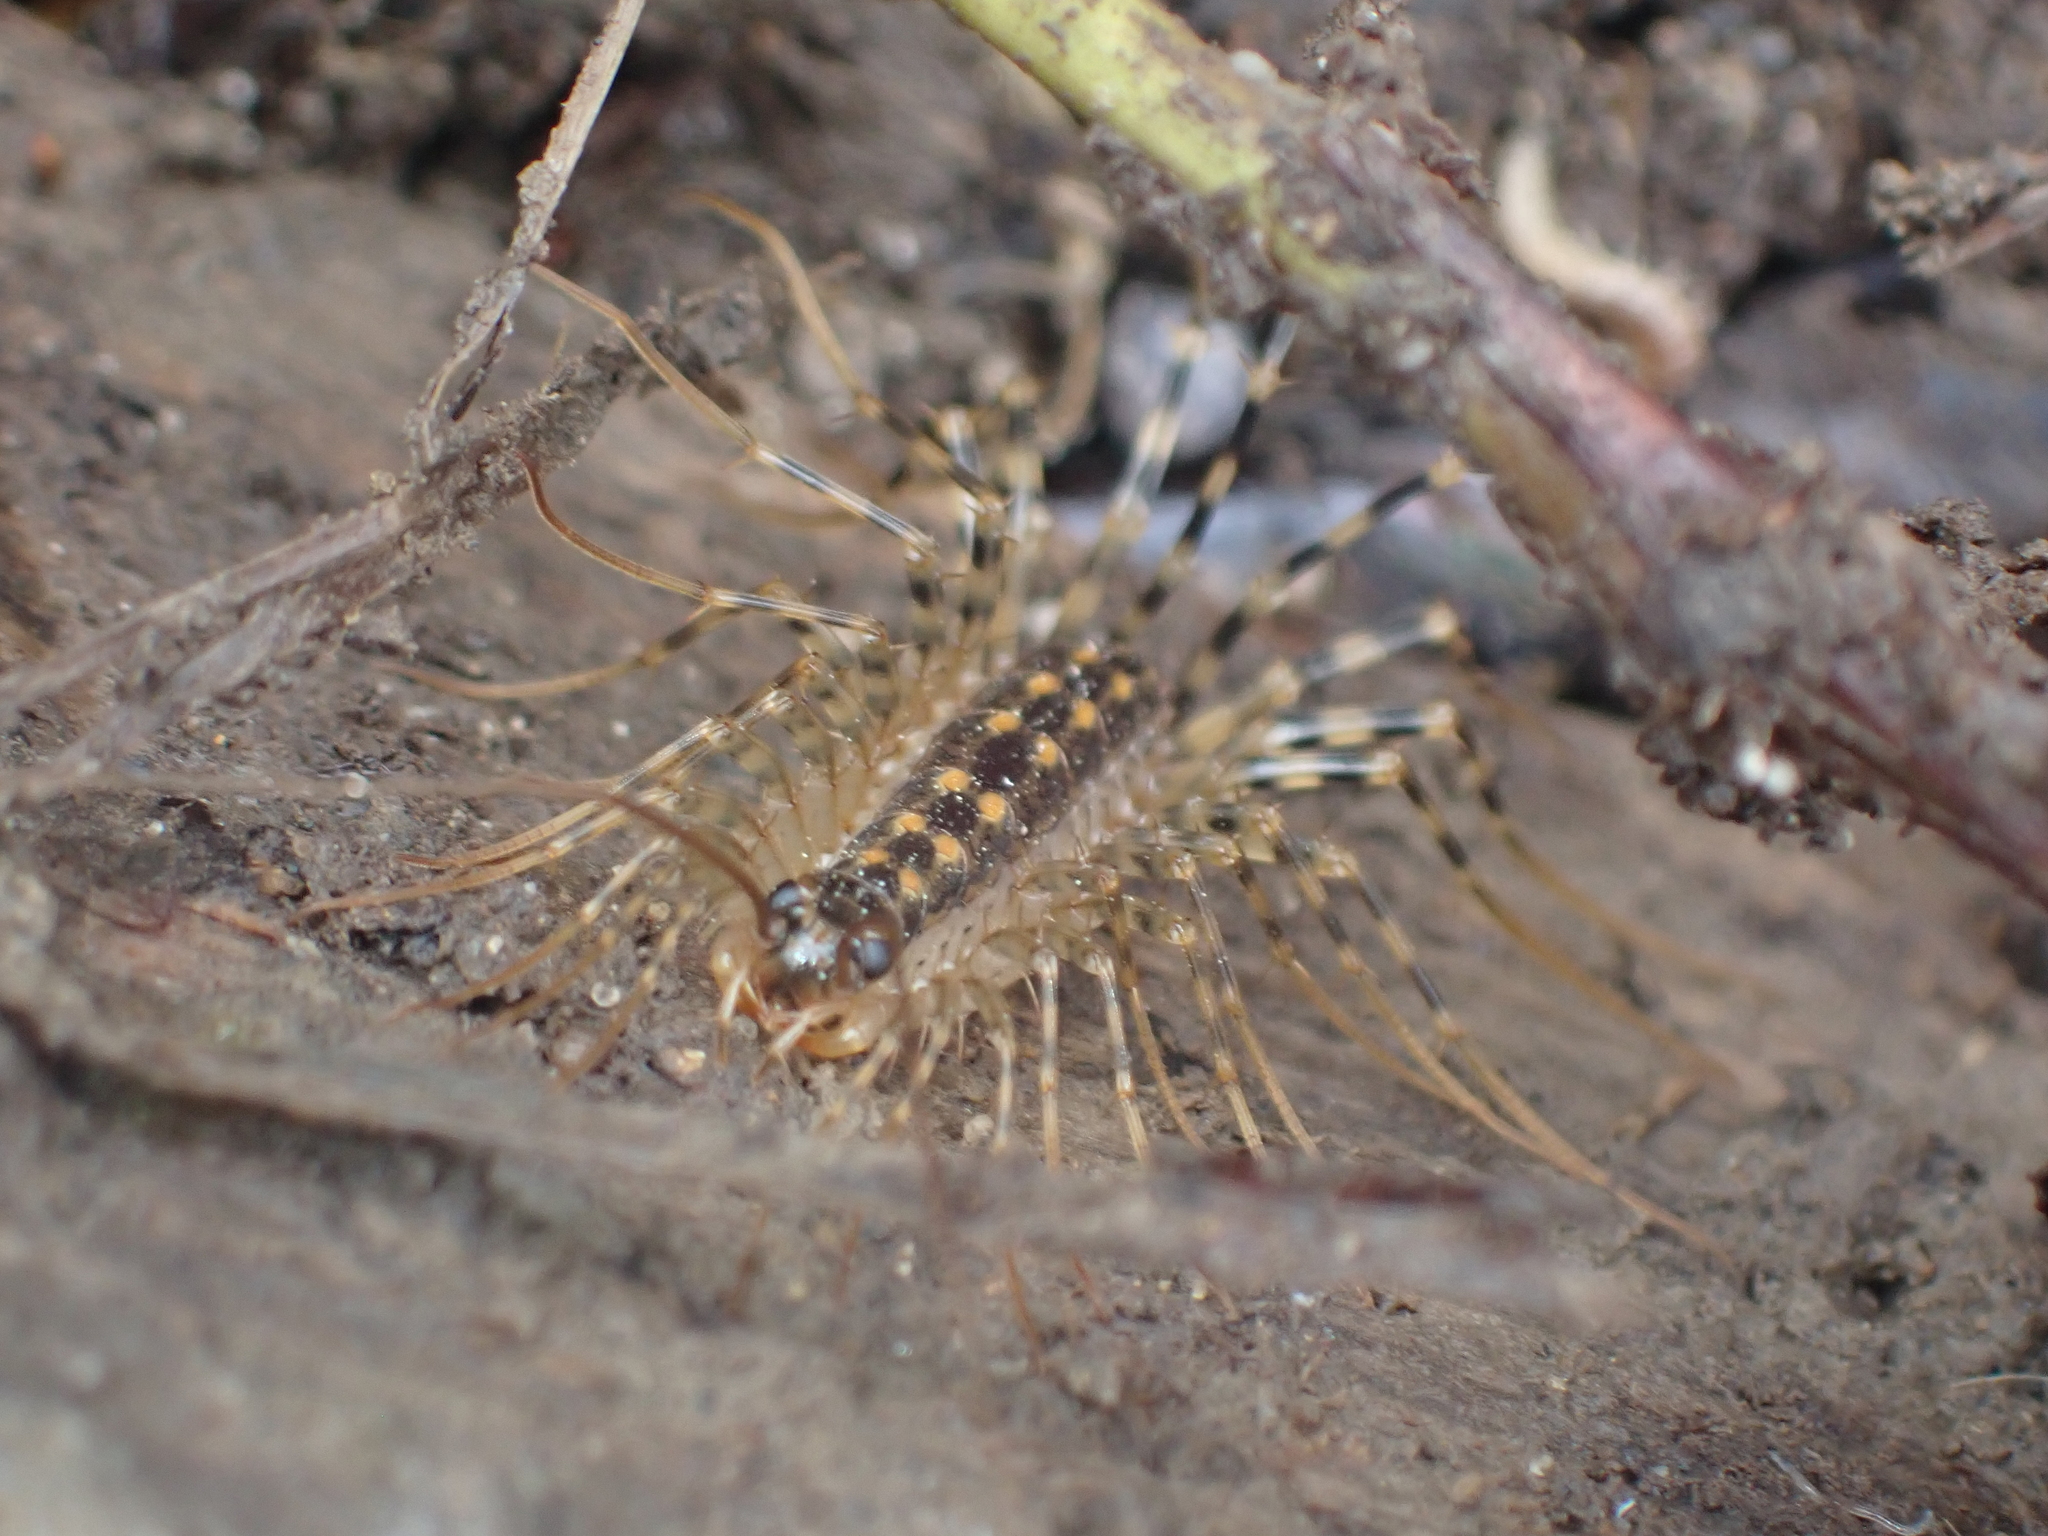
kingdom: Animalia
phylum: Arthropoda
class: Chilopoda
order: Scutigeromorpha
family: Scutigeridae
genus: Thereuonema
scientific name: Thereuonema tuberculata
